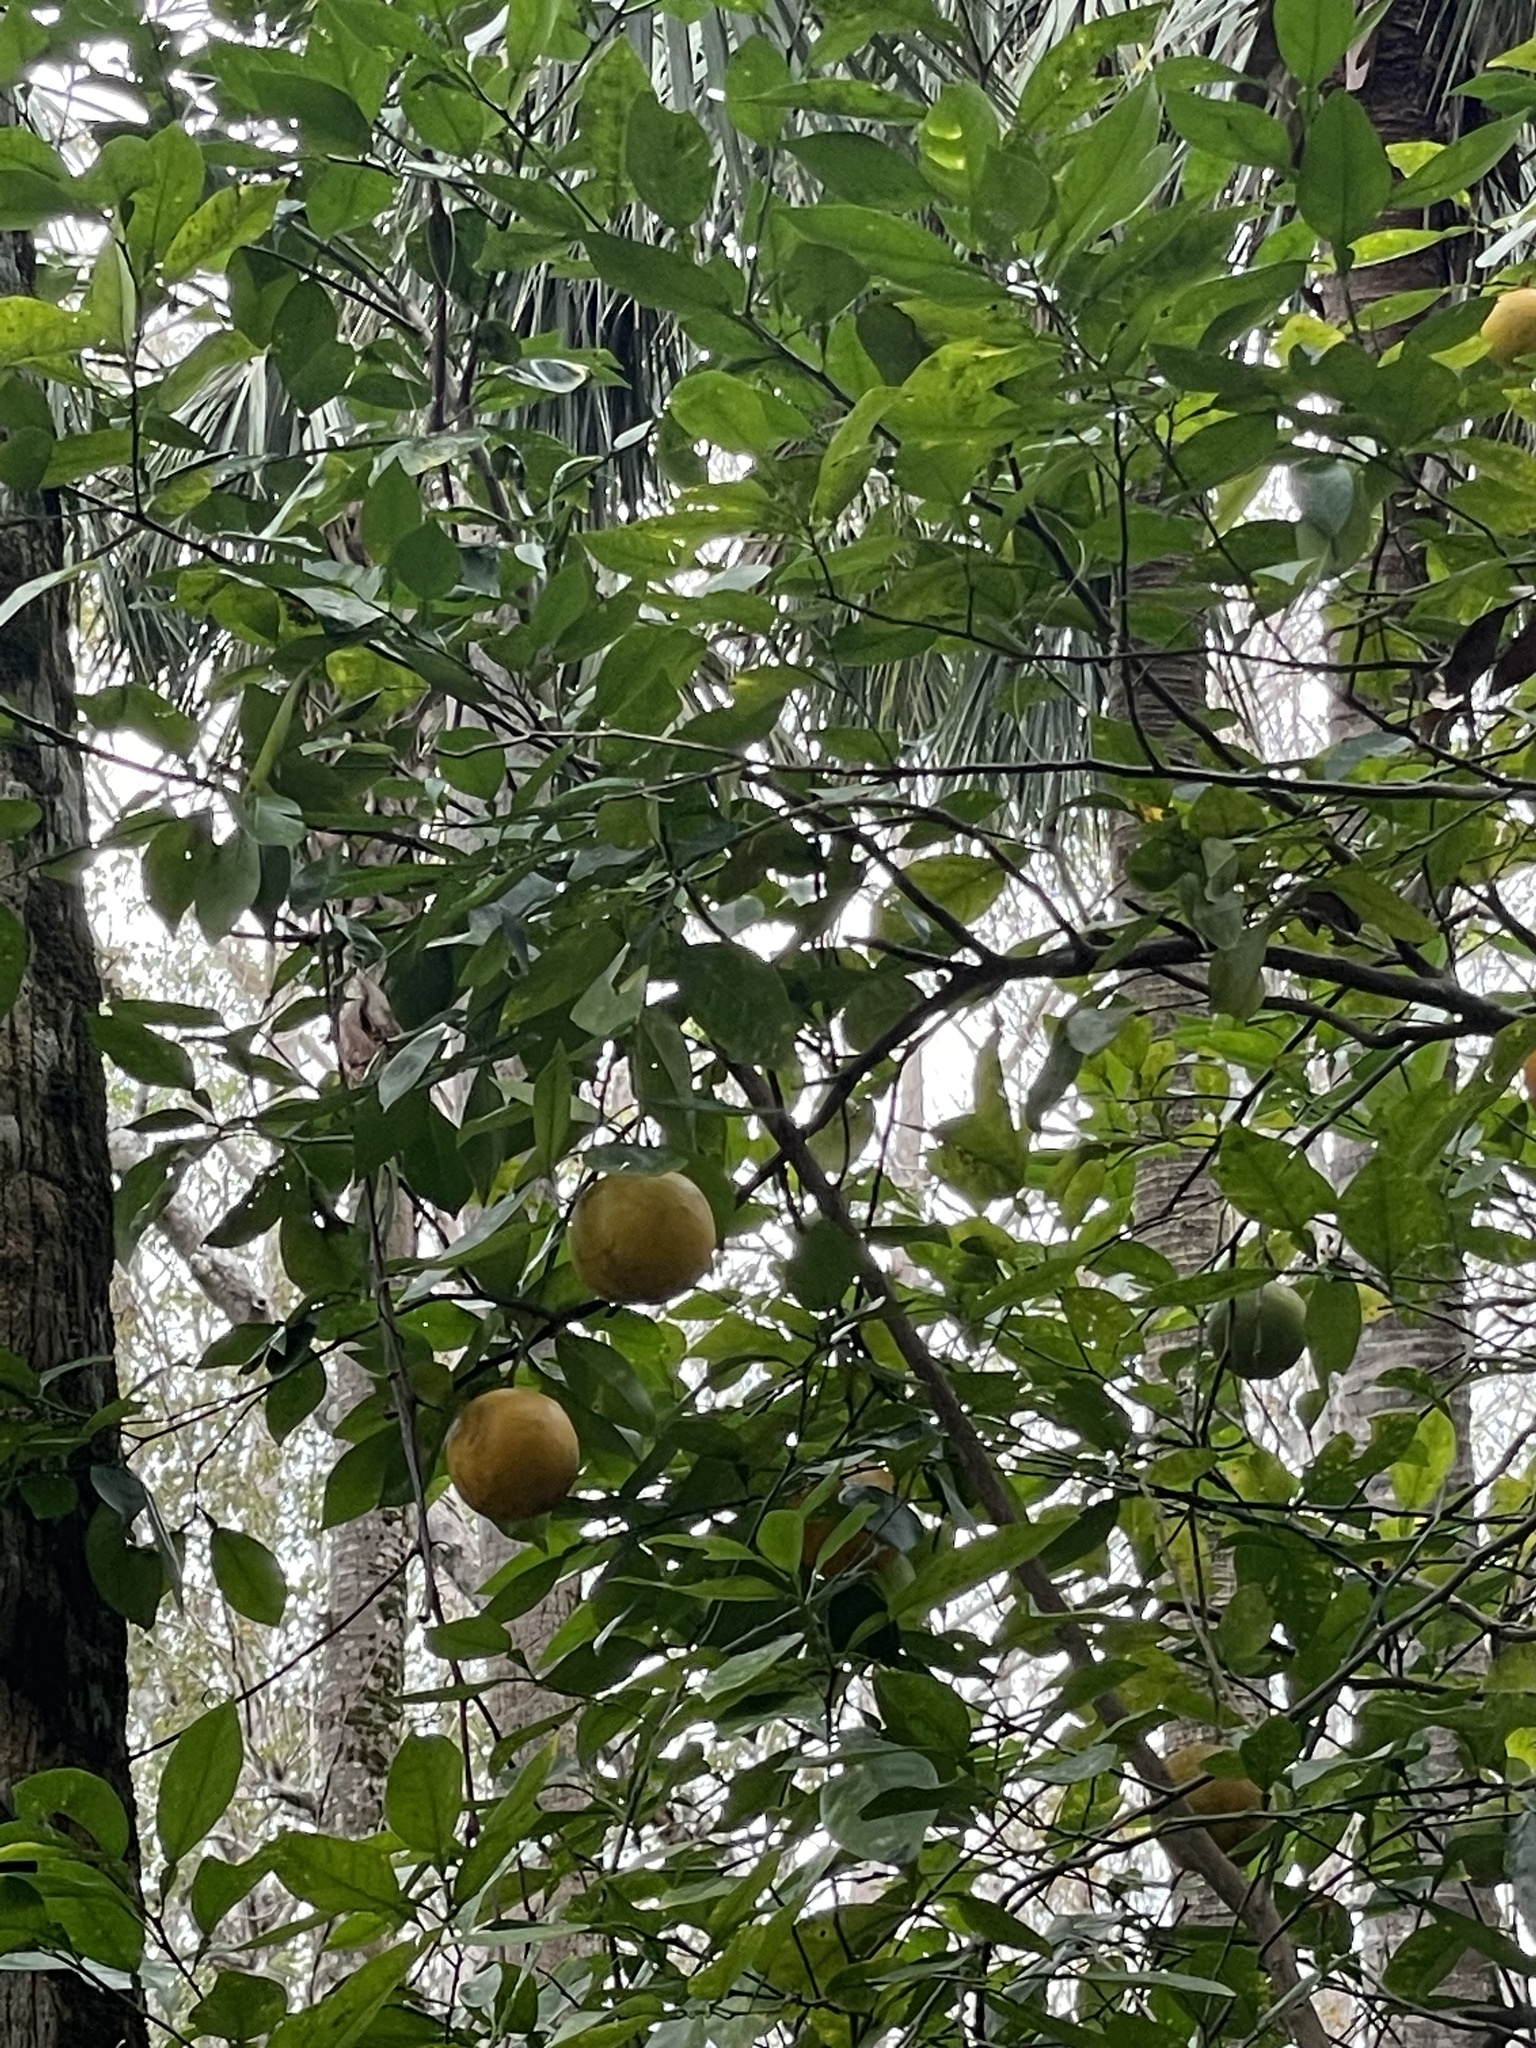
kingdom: Plantae
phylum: Tracheophyta
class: Magnoliopsida
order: Sapindales
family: Rutaceae
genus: Citrus
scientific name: Citrus aurantium
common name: Sour orange
